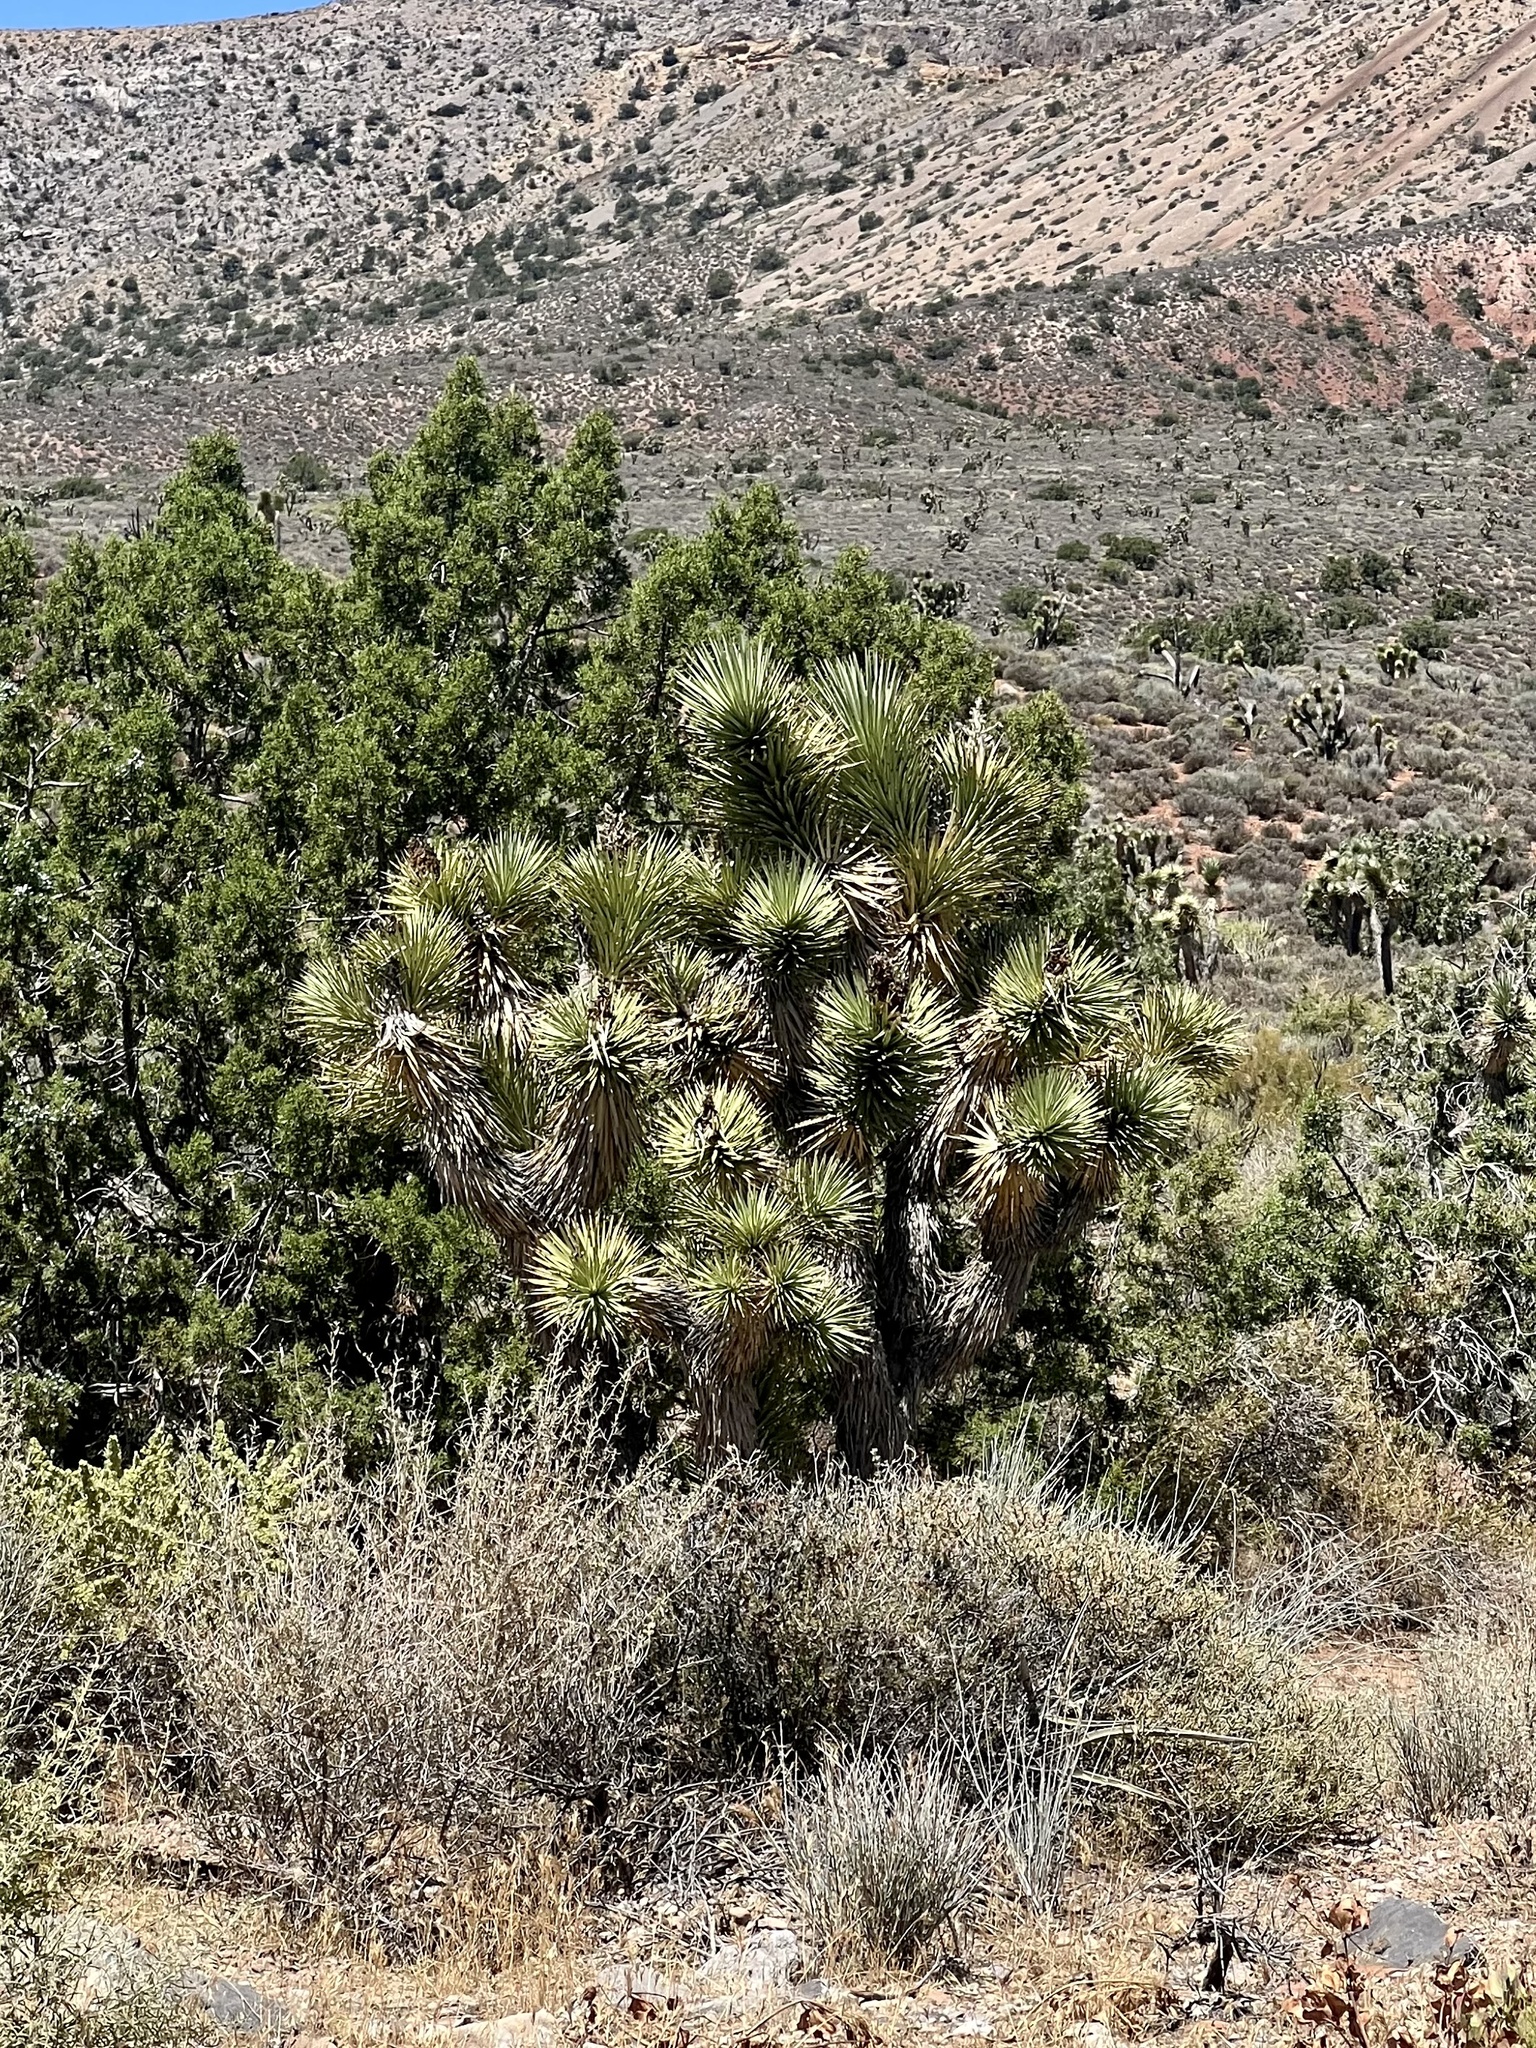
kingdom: Plantae
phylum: Tracheophyta
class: Liliopsida
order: Asparagales
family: Asparagaceae
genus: Yucca
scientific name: Yucca brevifolia
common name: Joshua tree
